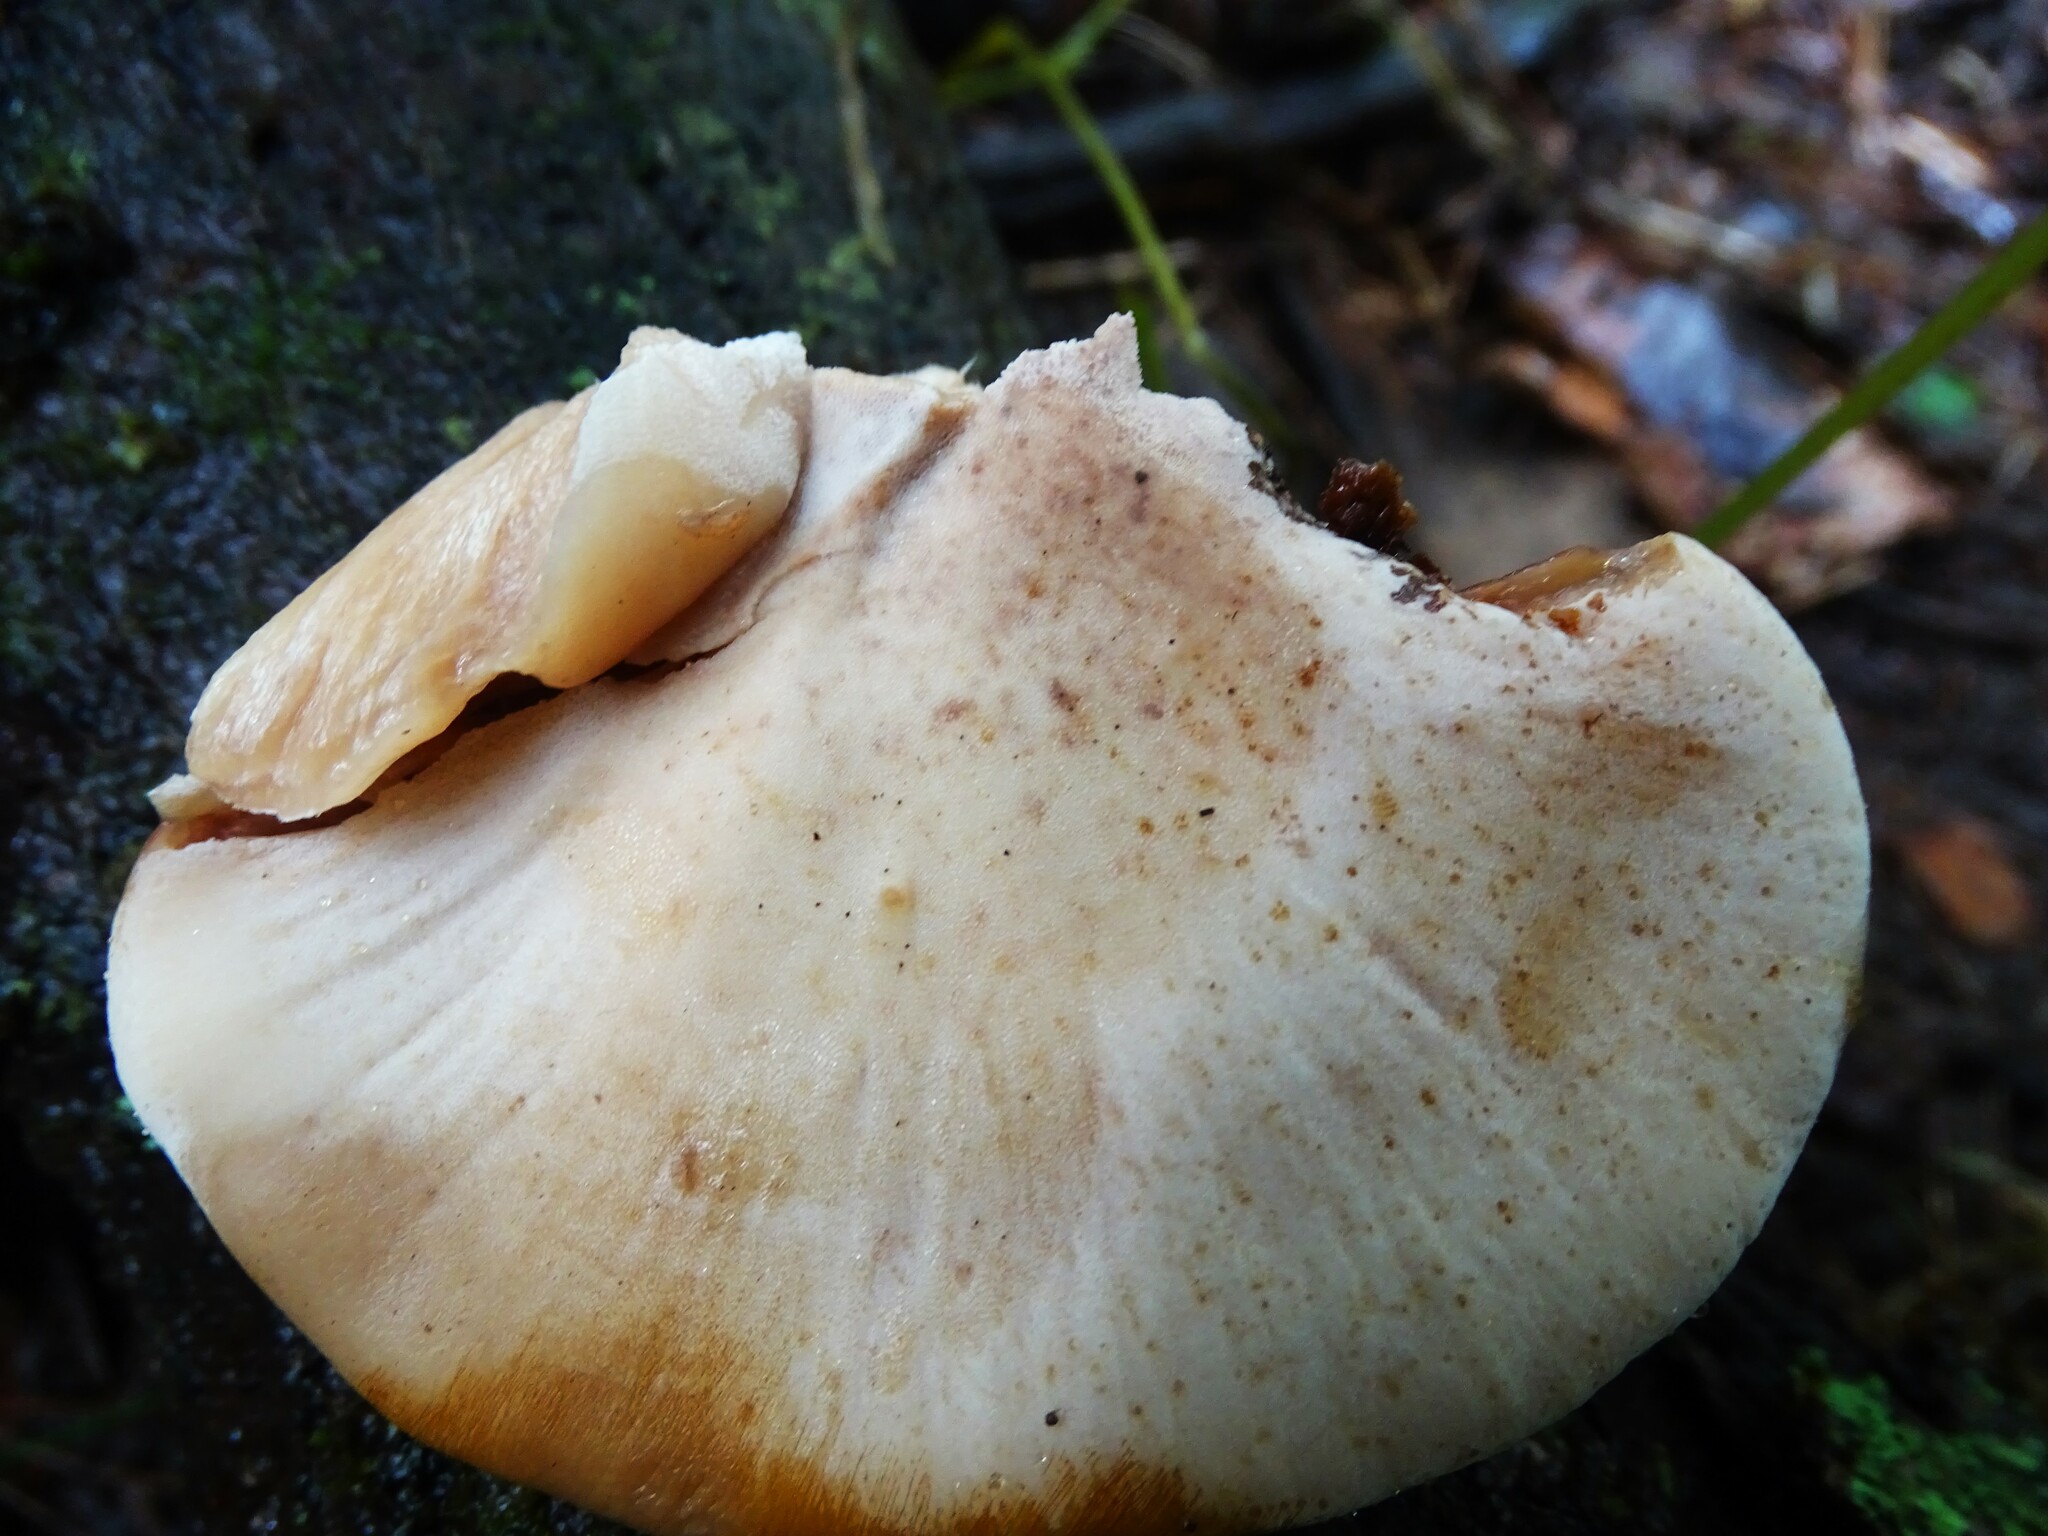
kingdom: Fungi
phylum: Basidiomycota
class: Agaricomycetes
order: Polyporales
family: Ischnodermataceae
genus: Ischnoderma
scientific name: Ischnoderma resinosum
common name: Resinous polypore
